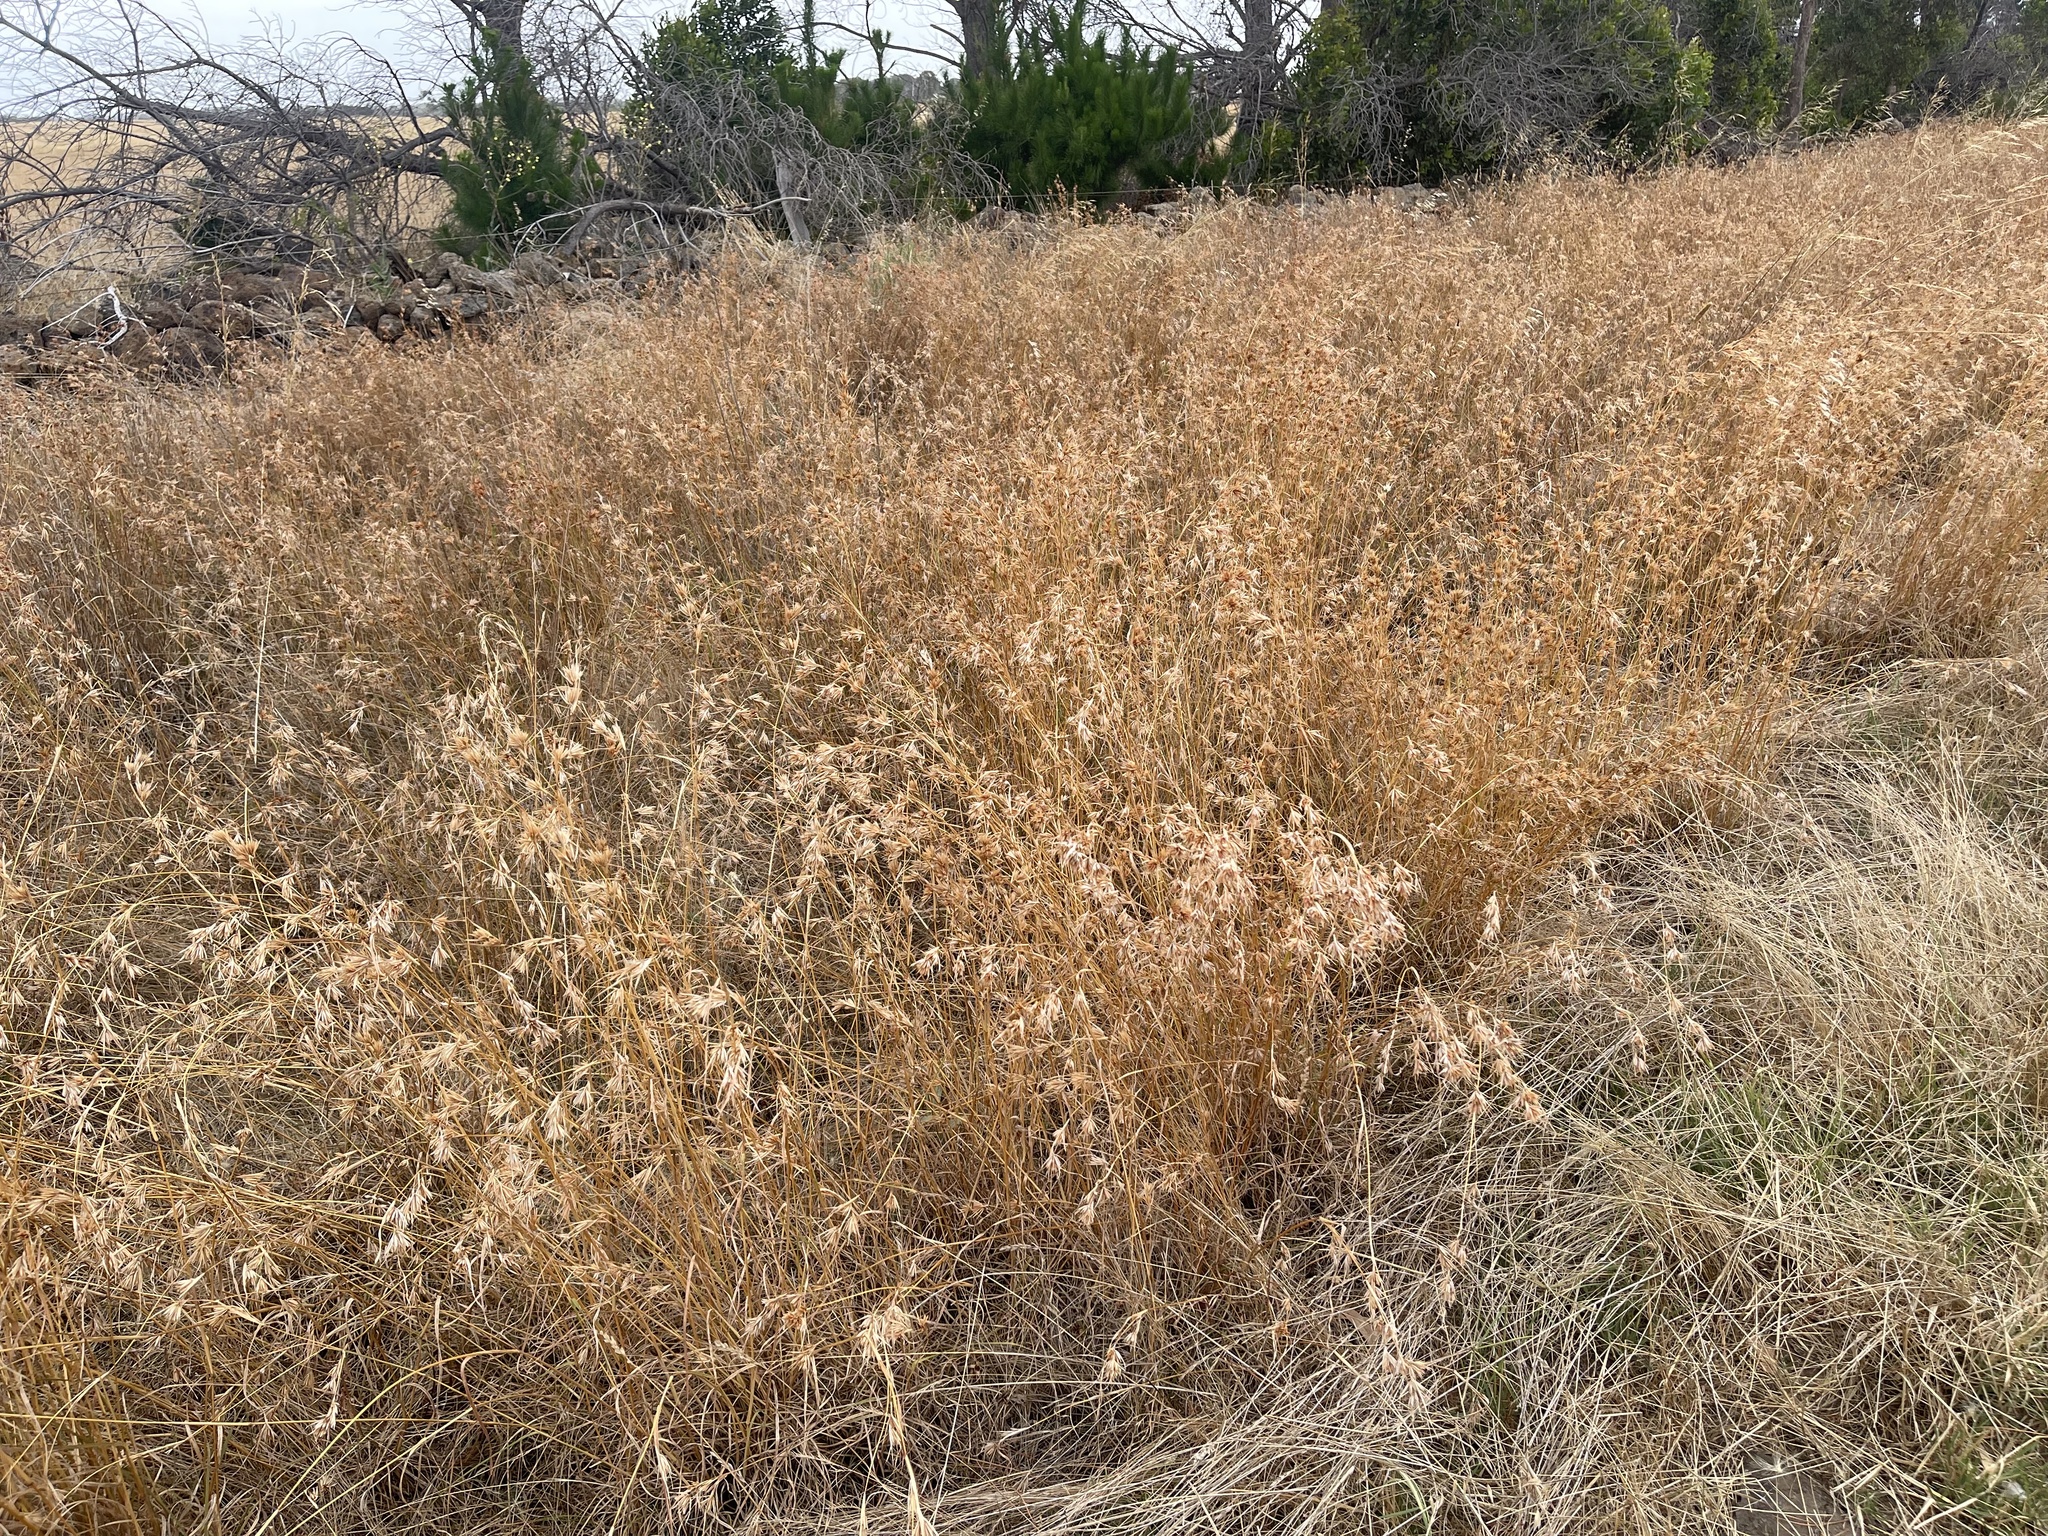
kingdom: Plantae
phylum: Tracheophyta
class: Liliopsida
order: Poales
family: Poaceae
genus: Themeda
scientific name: Themeda triandra
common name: Kangaroo grass
